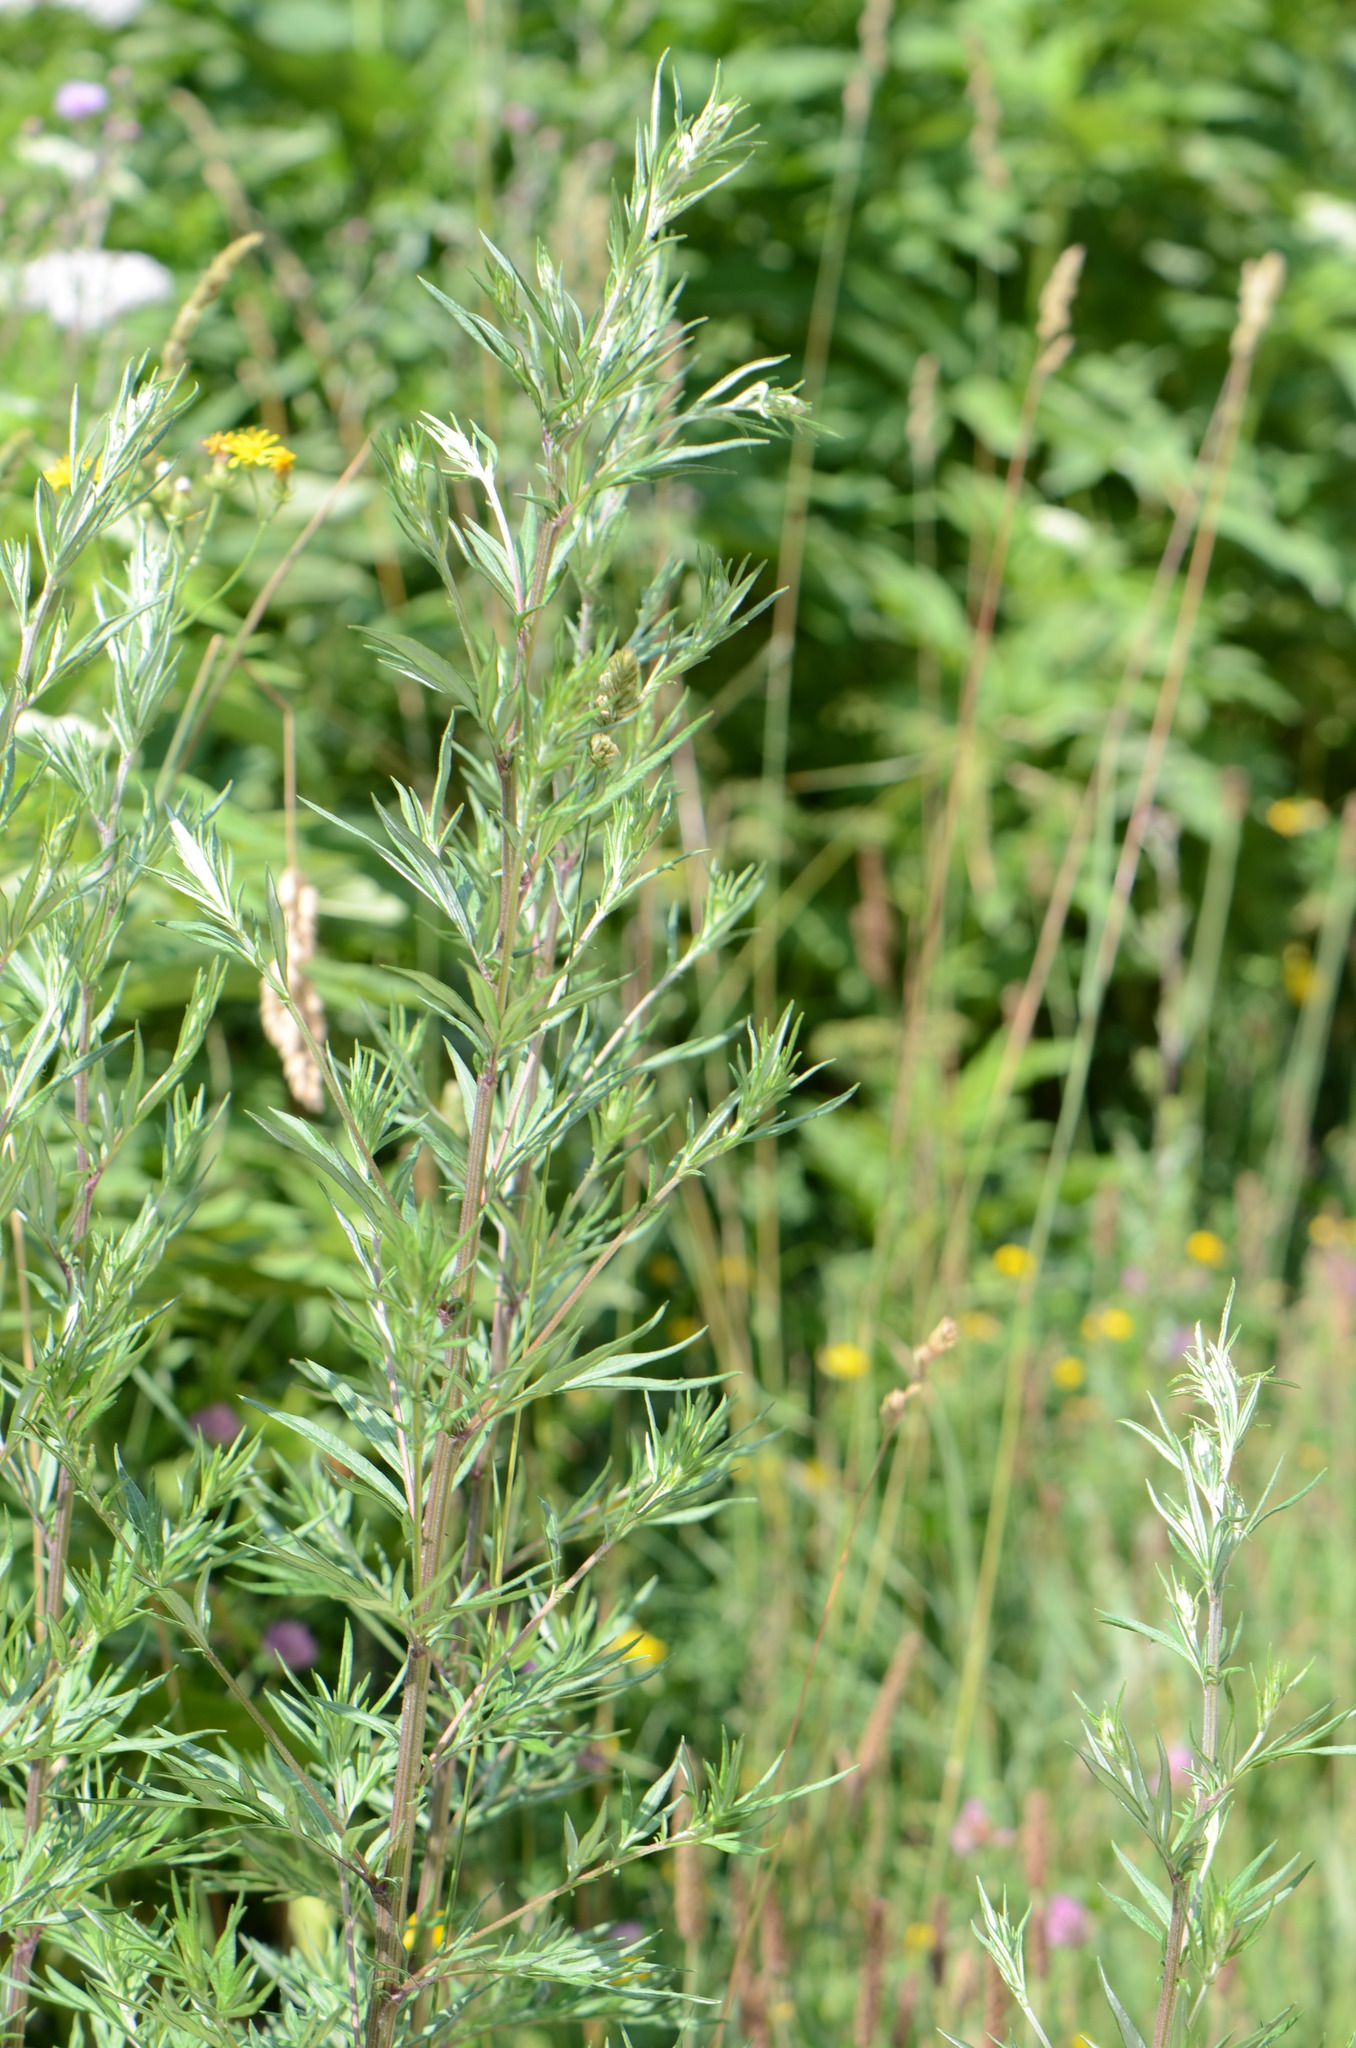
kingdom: Plantae
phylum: Tracheophyta
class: Magnoliopsida
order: Asterales
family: Asteraceae
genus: Artemisia
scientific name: Artemisia vulgaris
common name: Mugwort
